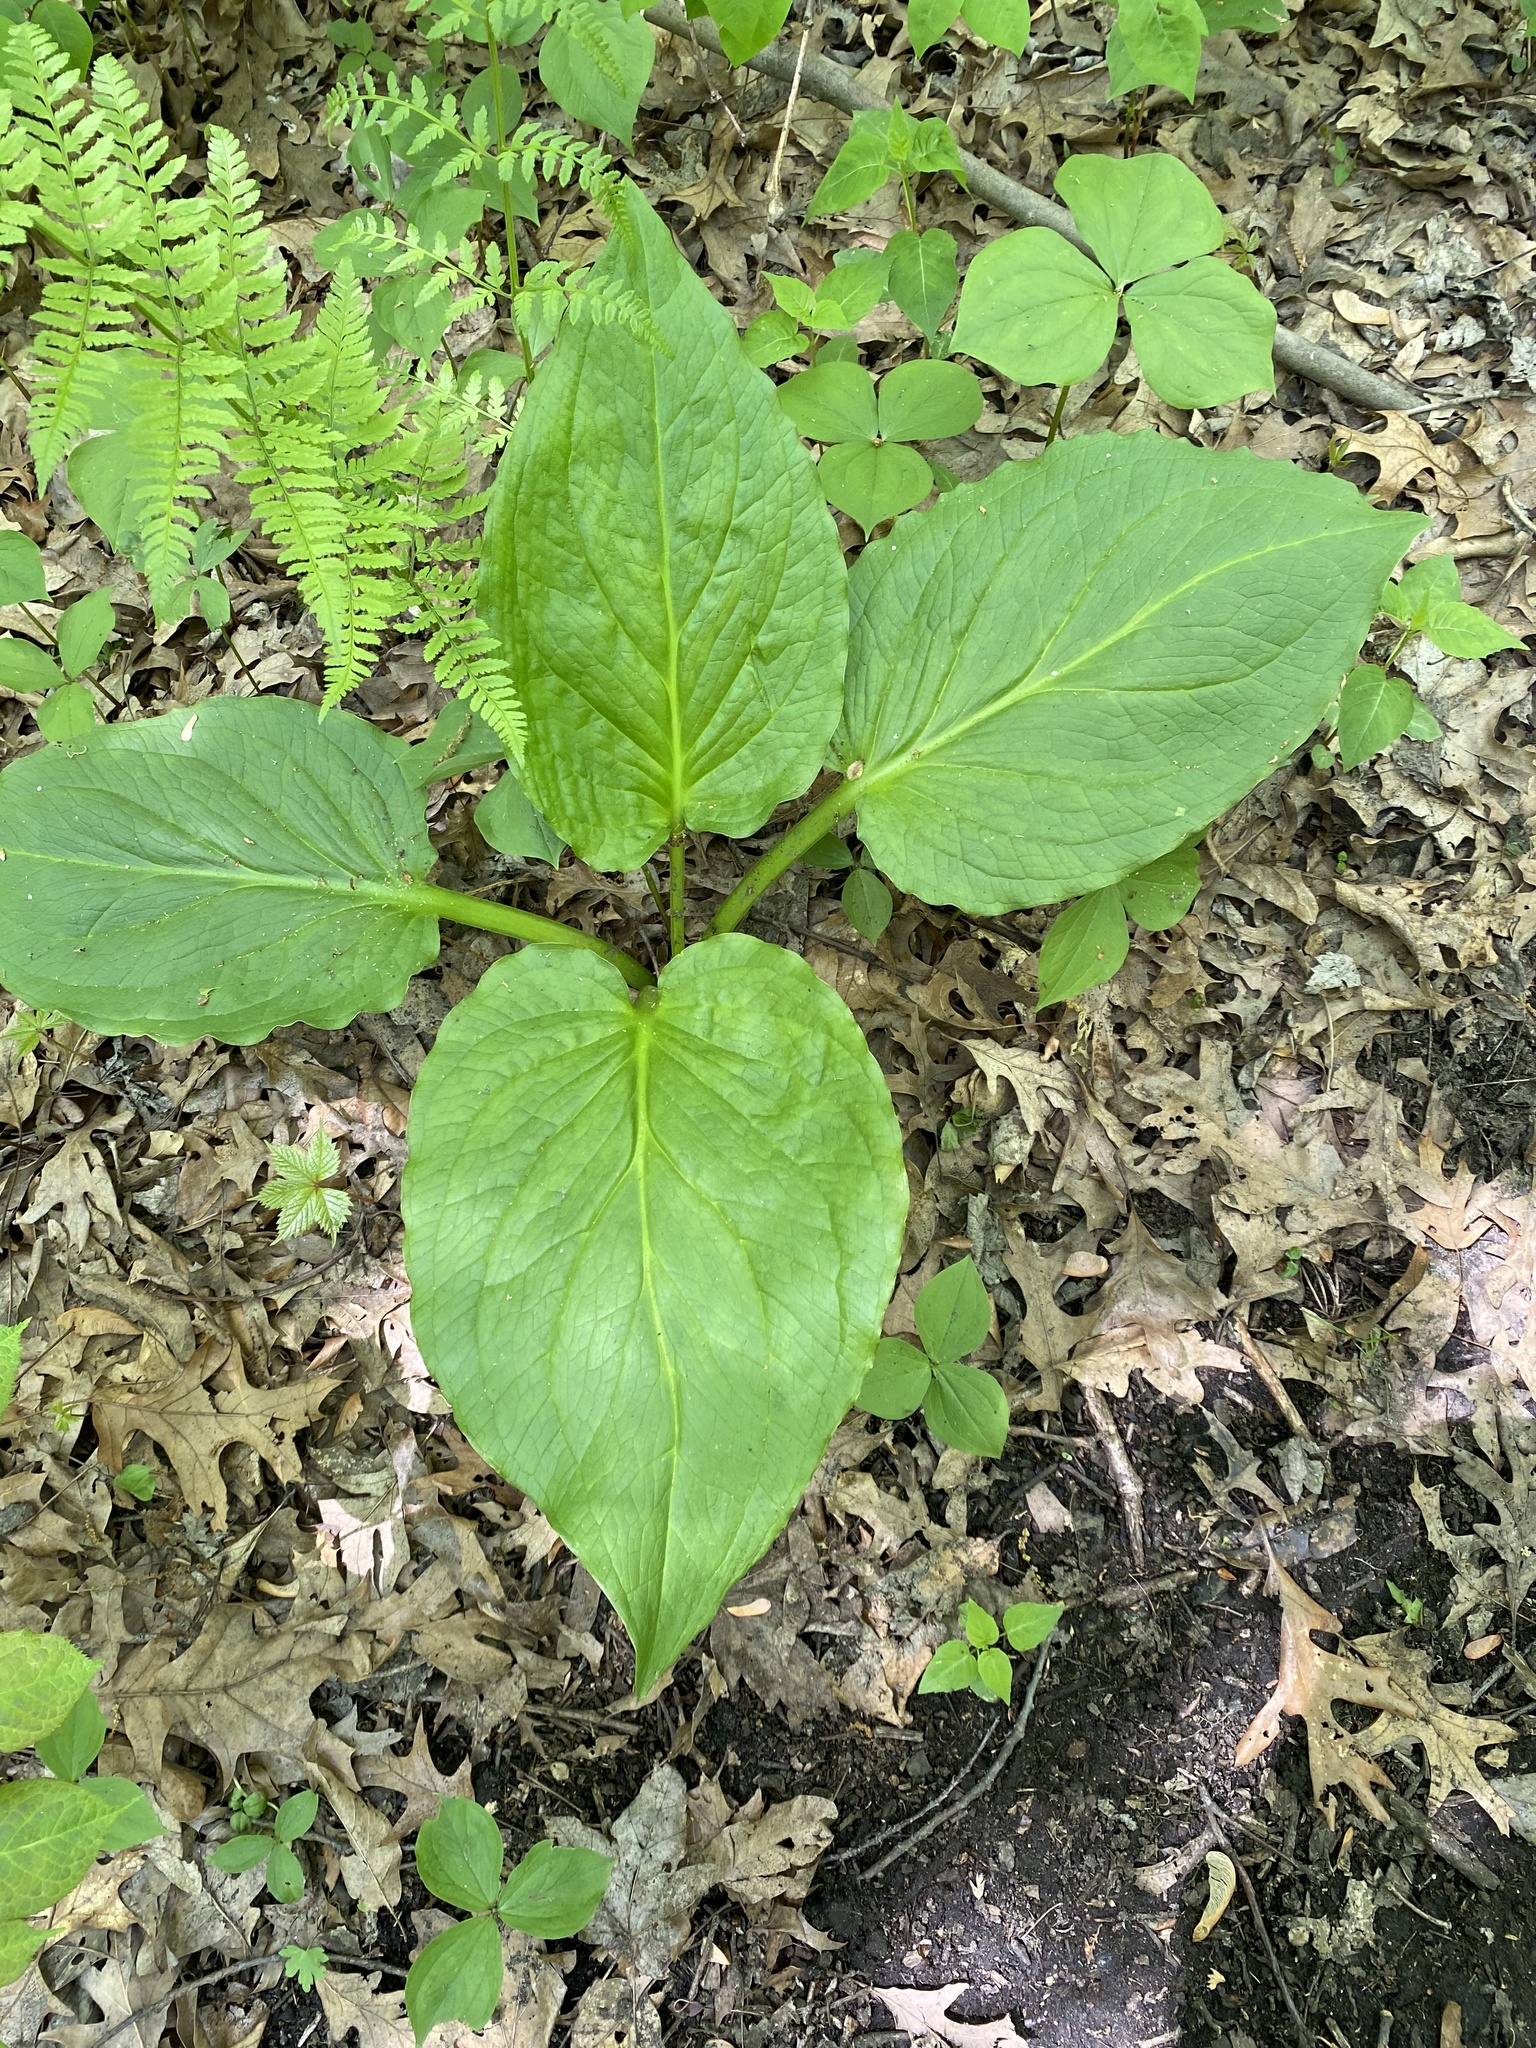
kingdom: Plantae
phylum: Tracheophyta
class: Liliopsida
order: Alismatales
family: Araceae
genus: Symplocarpus
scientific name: Symplocarpus foetidus
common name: Eastern skunk cabbage
